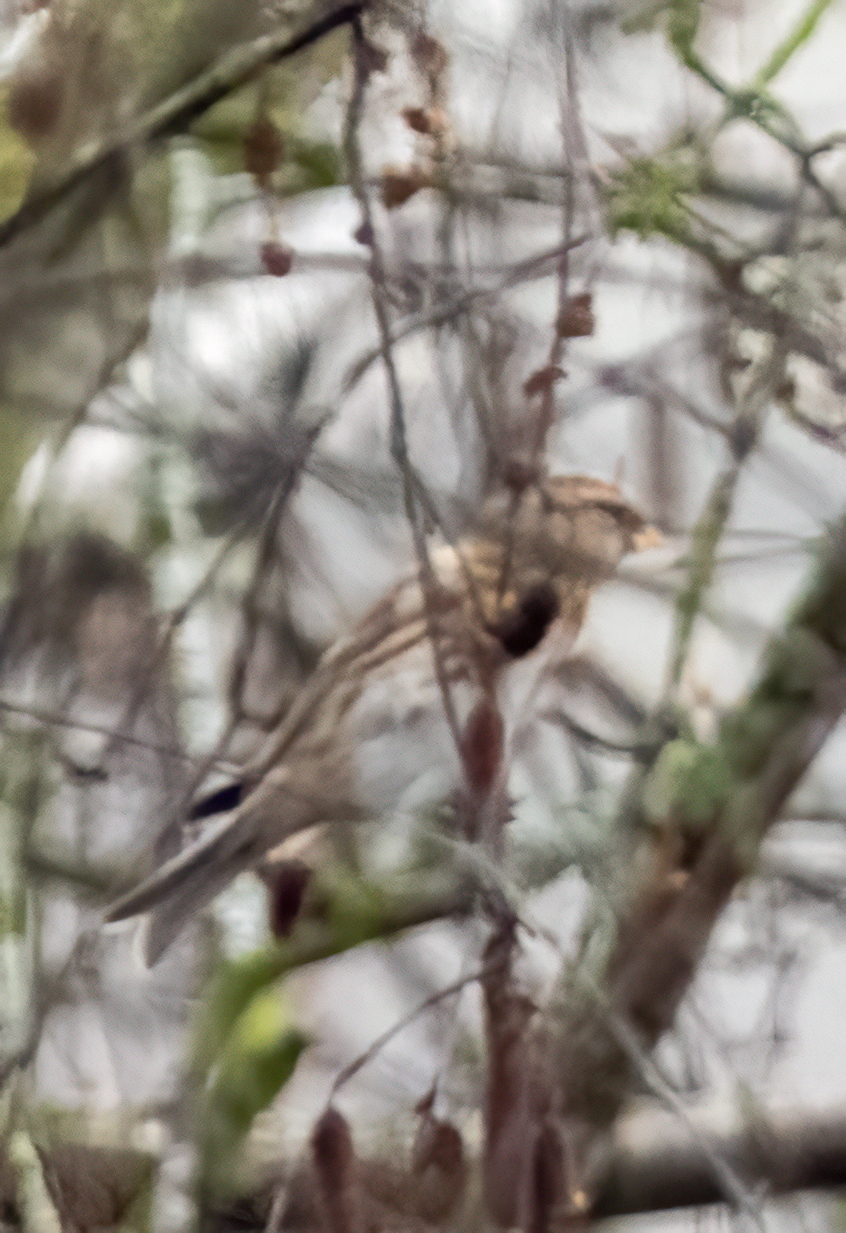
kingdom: Animalia
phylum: Chordata
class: Aves
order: Passeriformes
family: Fringillidae
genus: Acanthis
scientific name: Acanthis flammea
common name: Common redpoll
